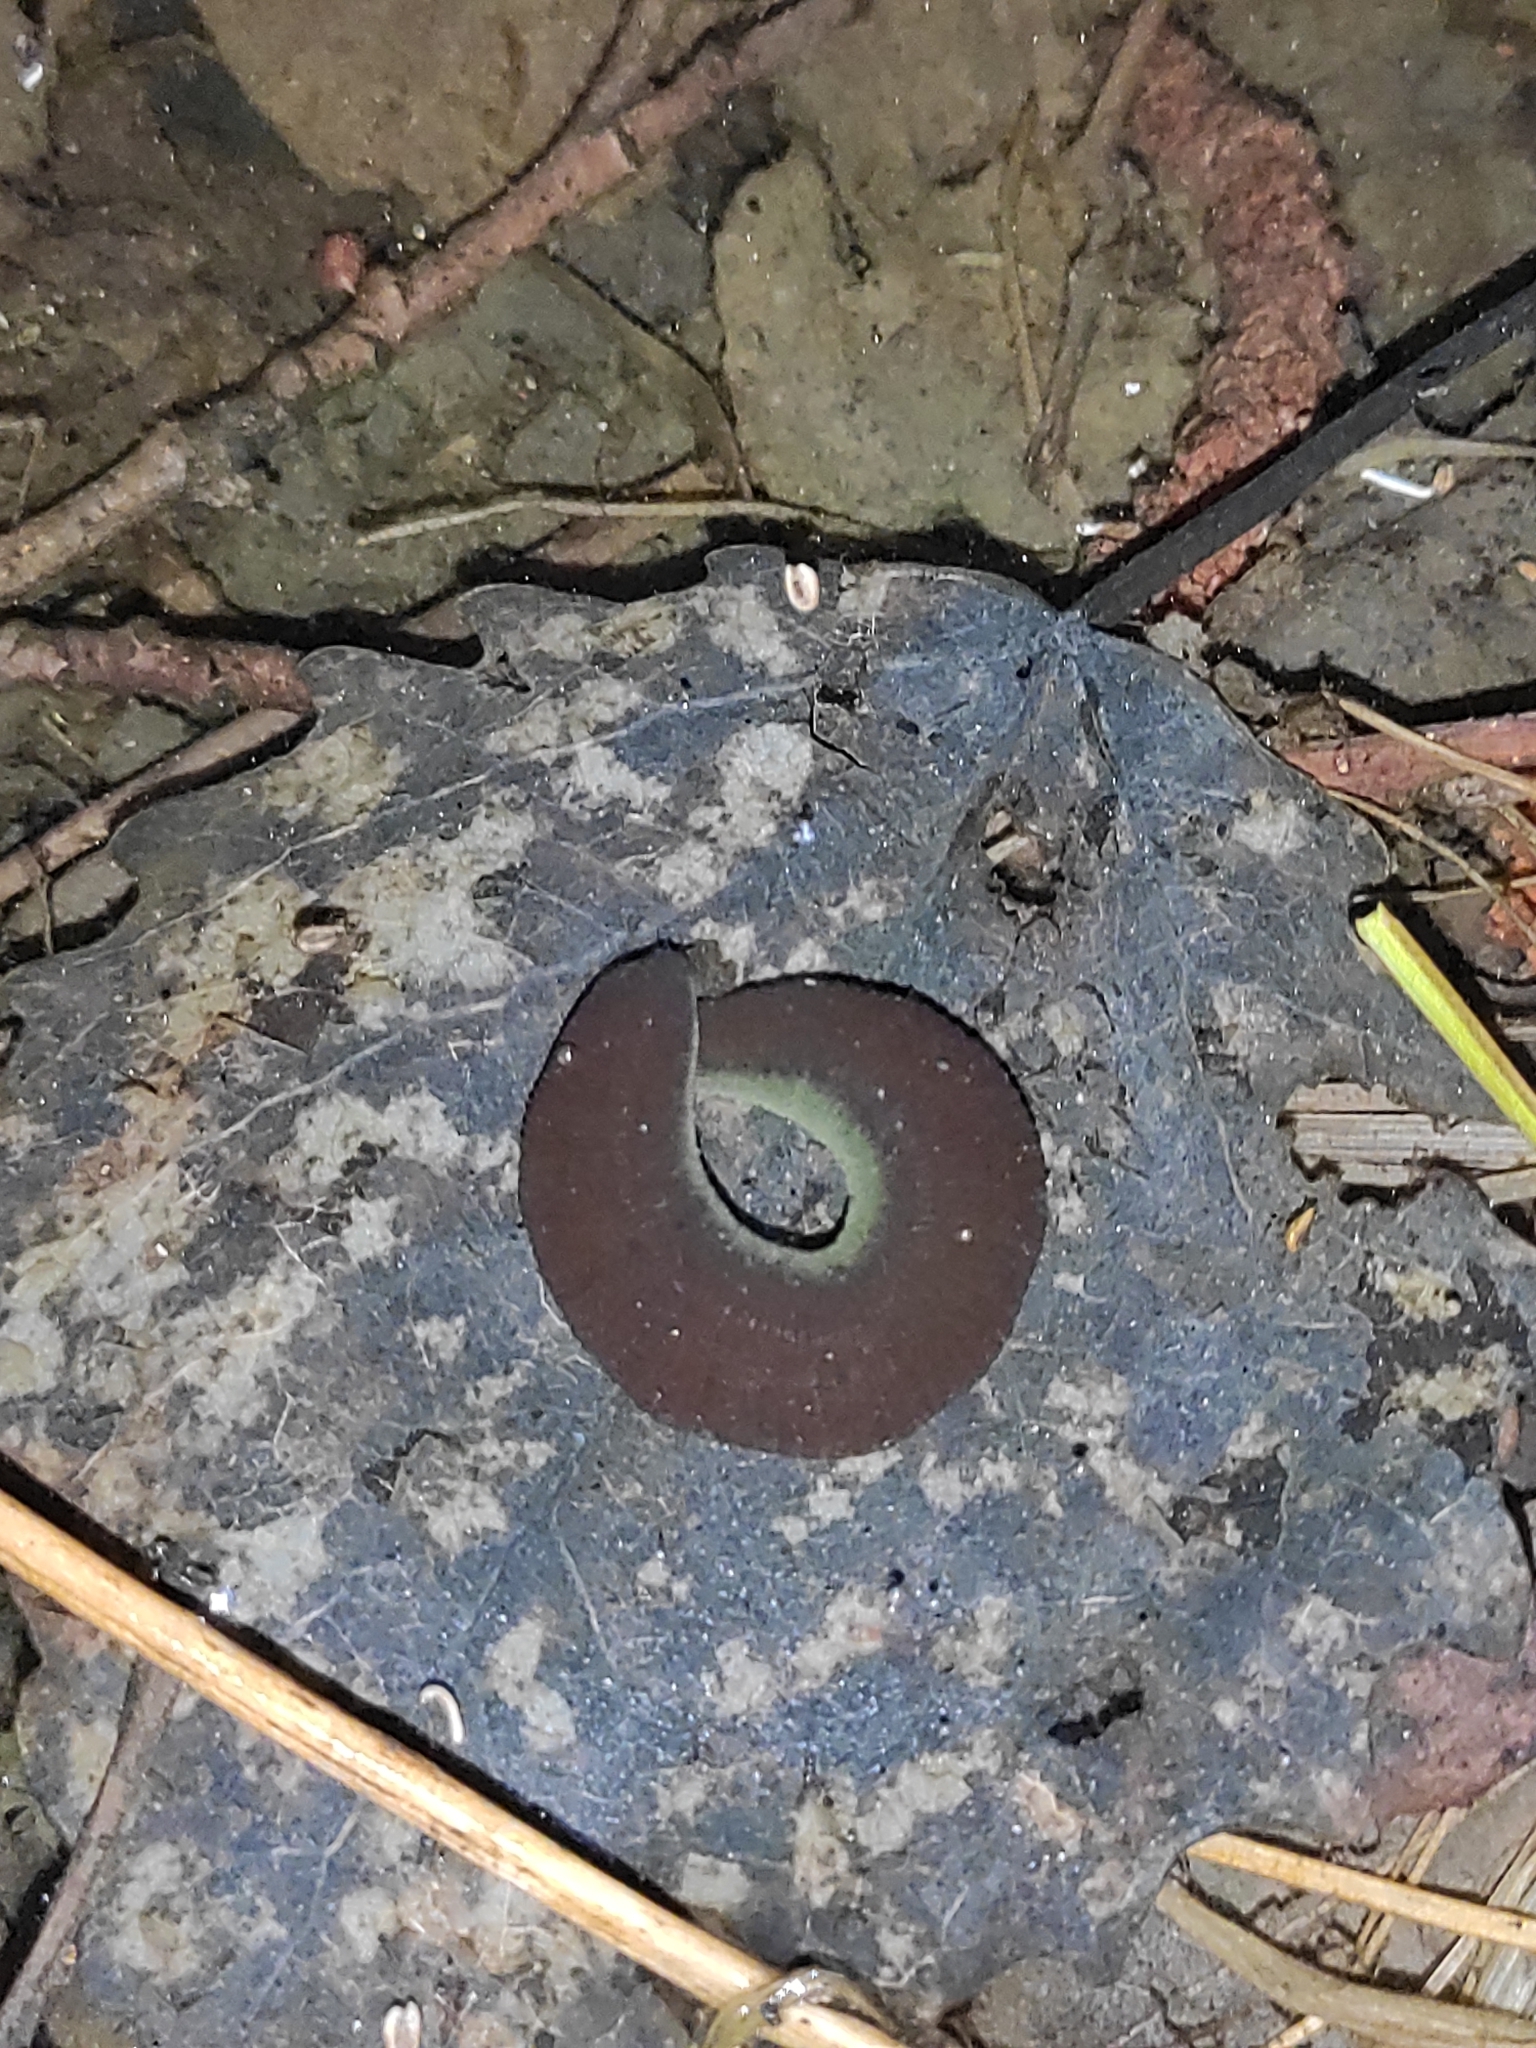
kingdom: Animalia
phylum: Annelida
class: Clitellata
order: Arhynchobdellida
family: Haemopidae
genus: Haemopis
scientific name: Haemopis sanguisuga
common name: Horse leech
